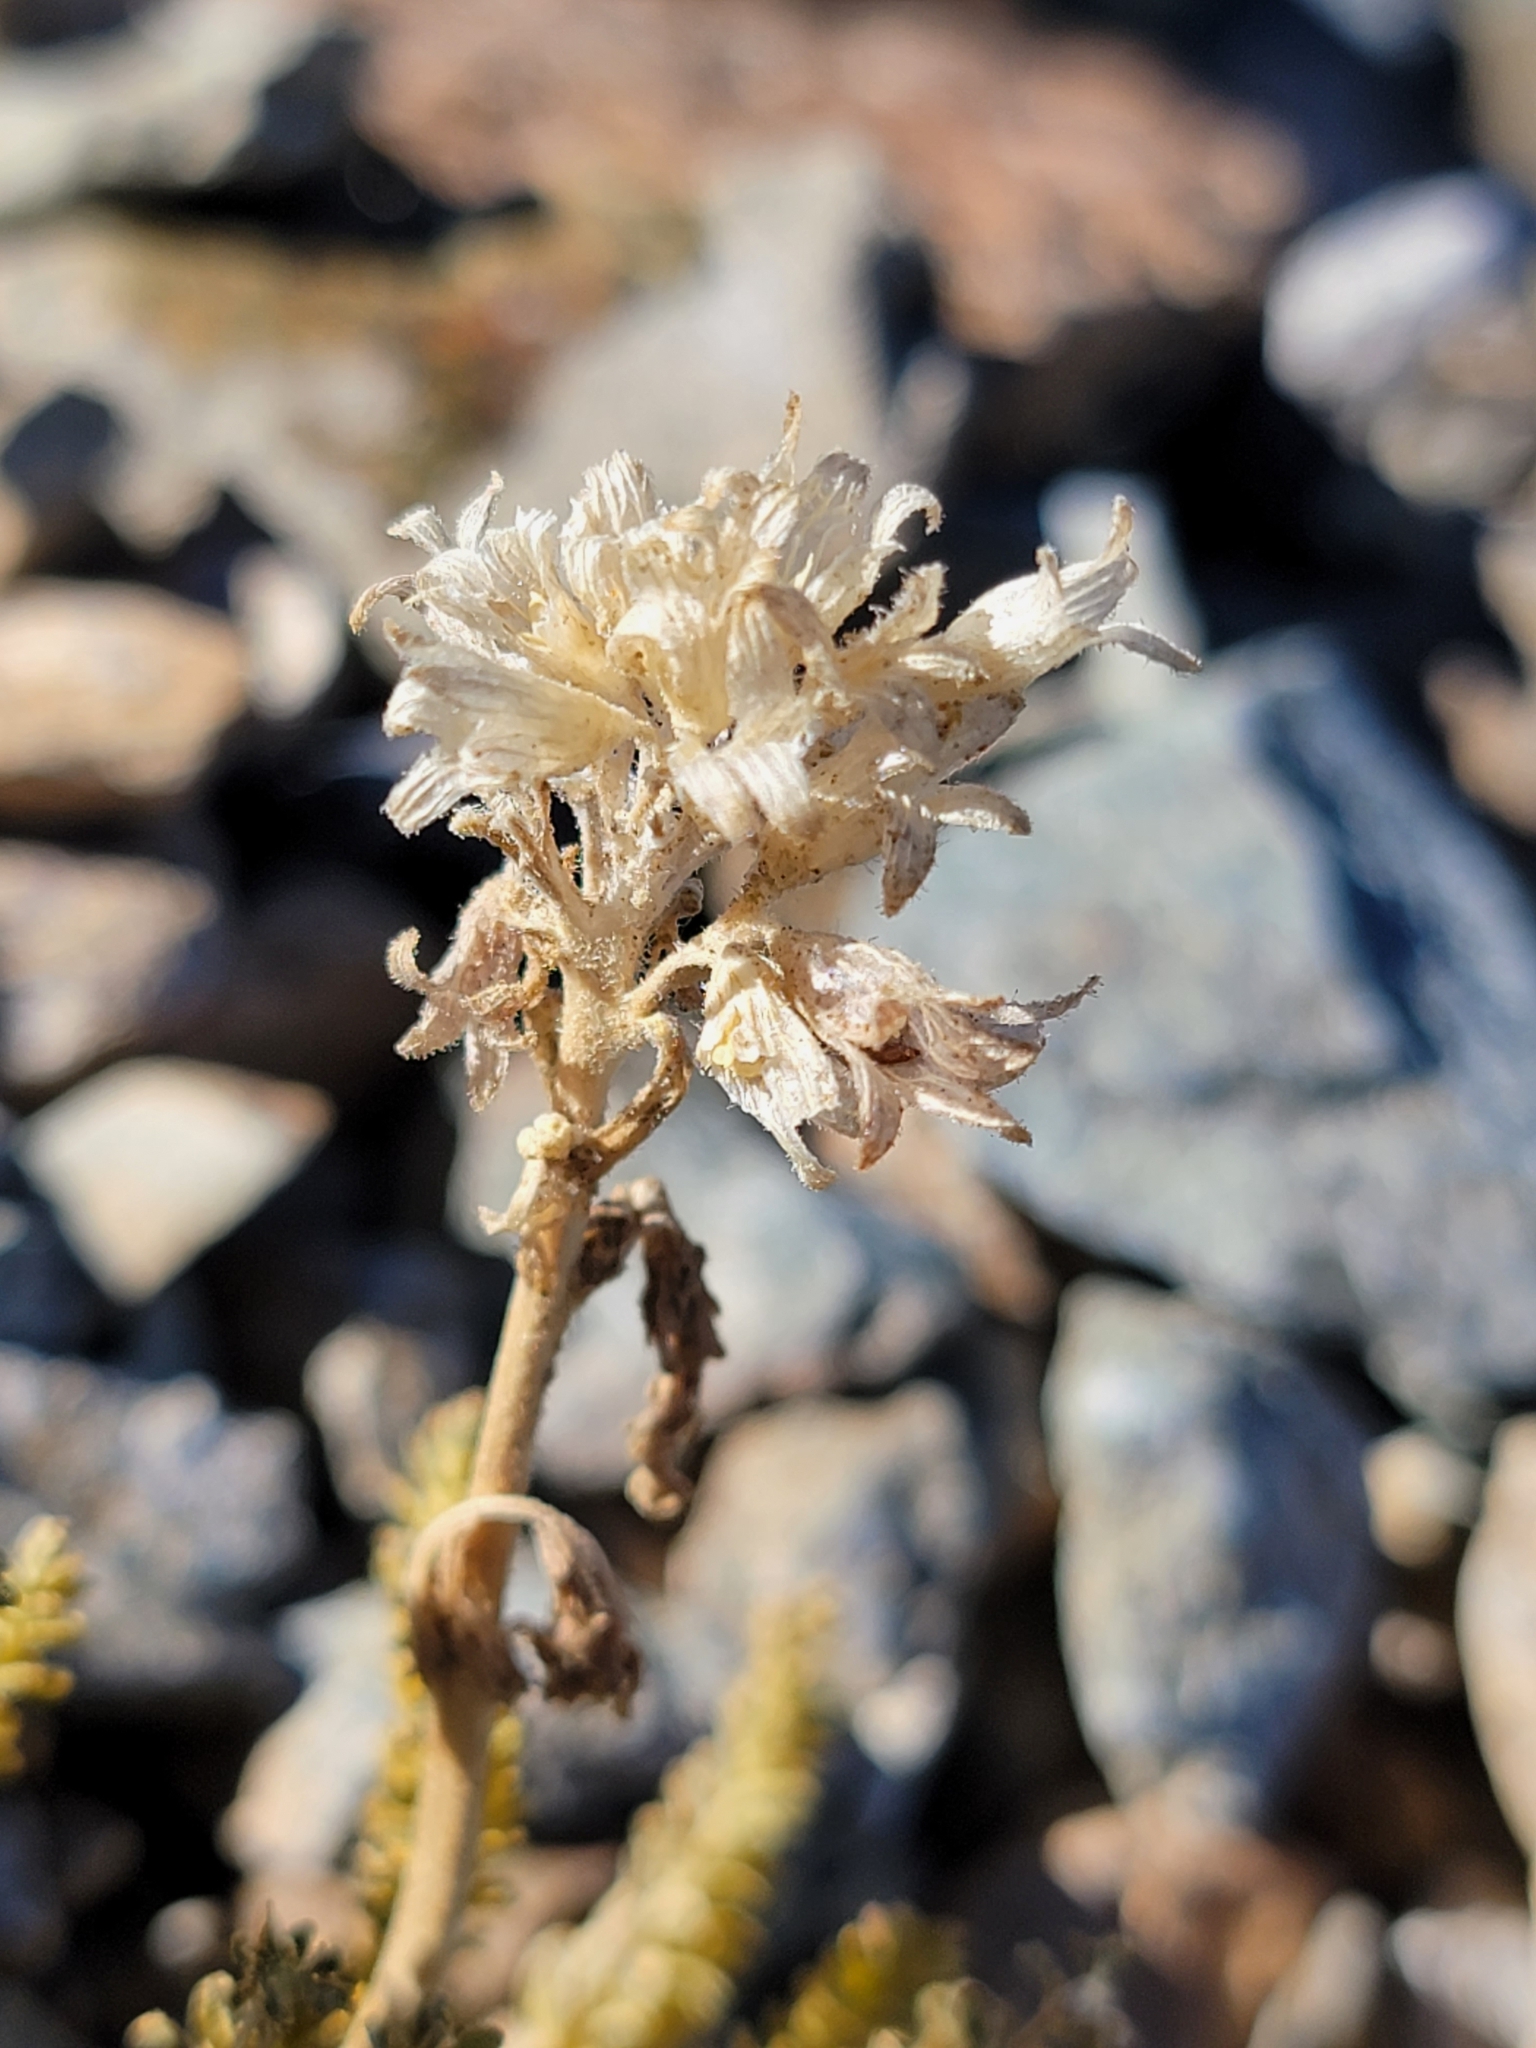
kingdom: Plantae
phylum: Tracheophyta
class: Magnoliopsida
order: Ericales
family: Polemoniaceae
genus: Polemonium
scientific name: Polemonium eximium
